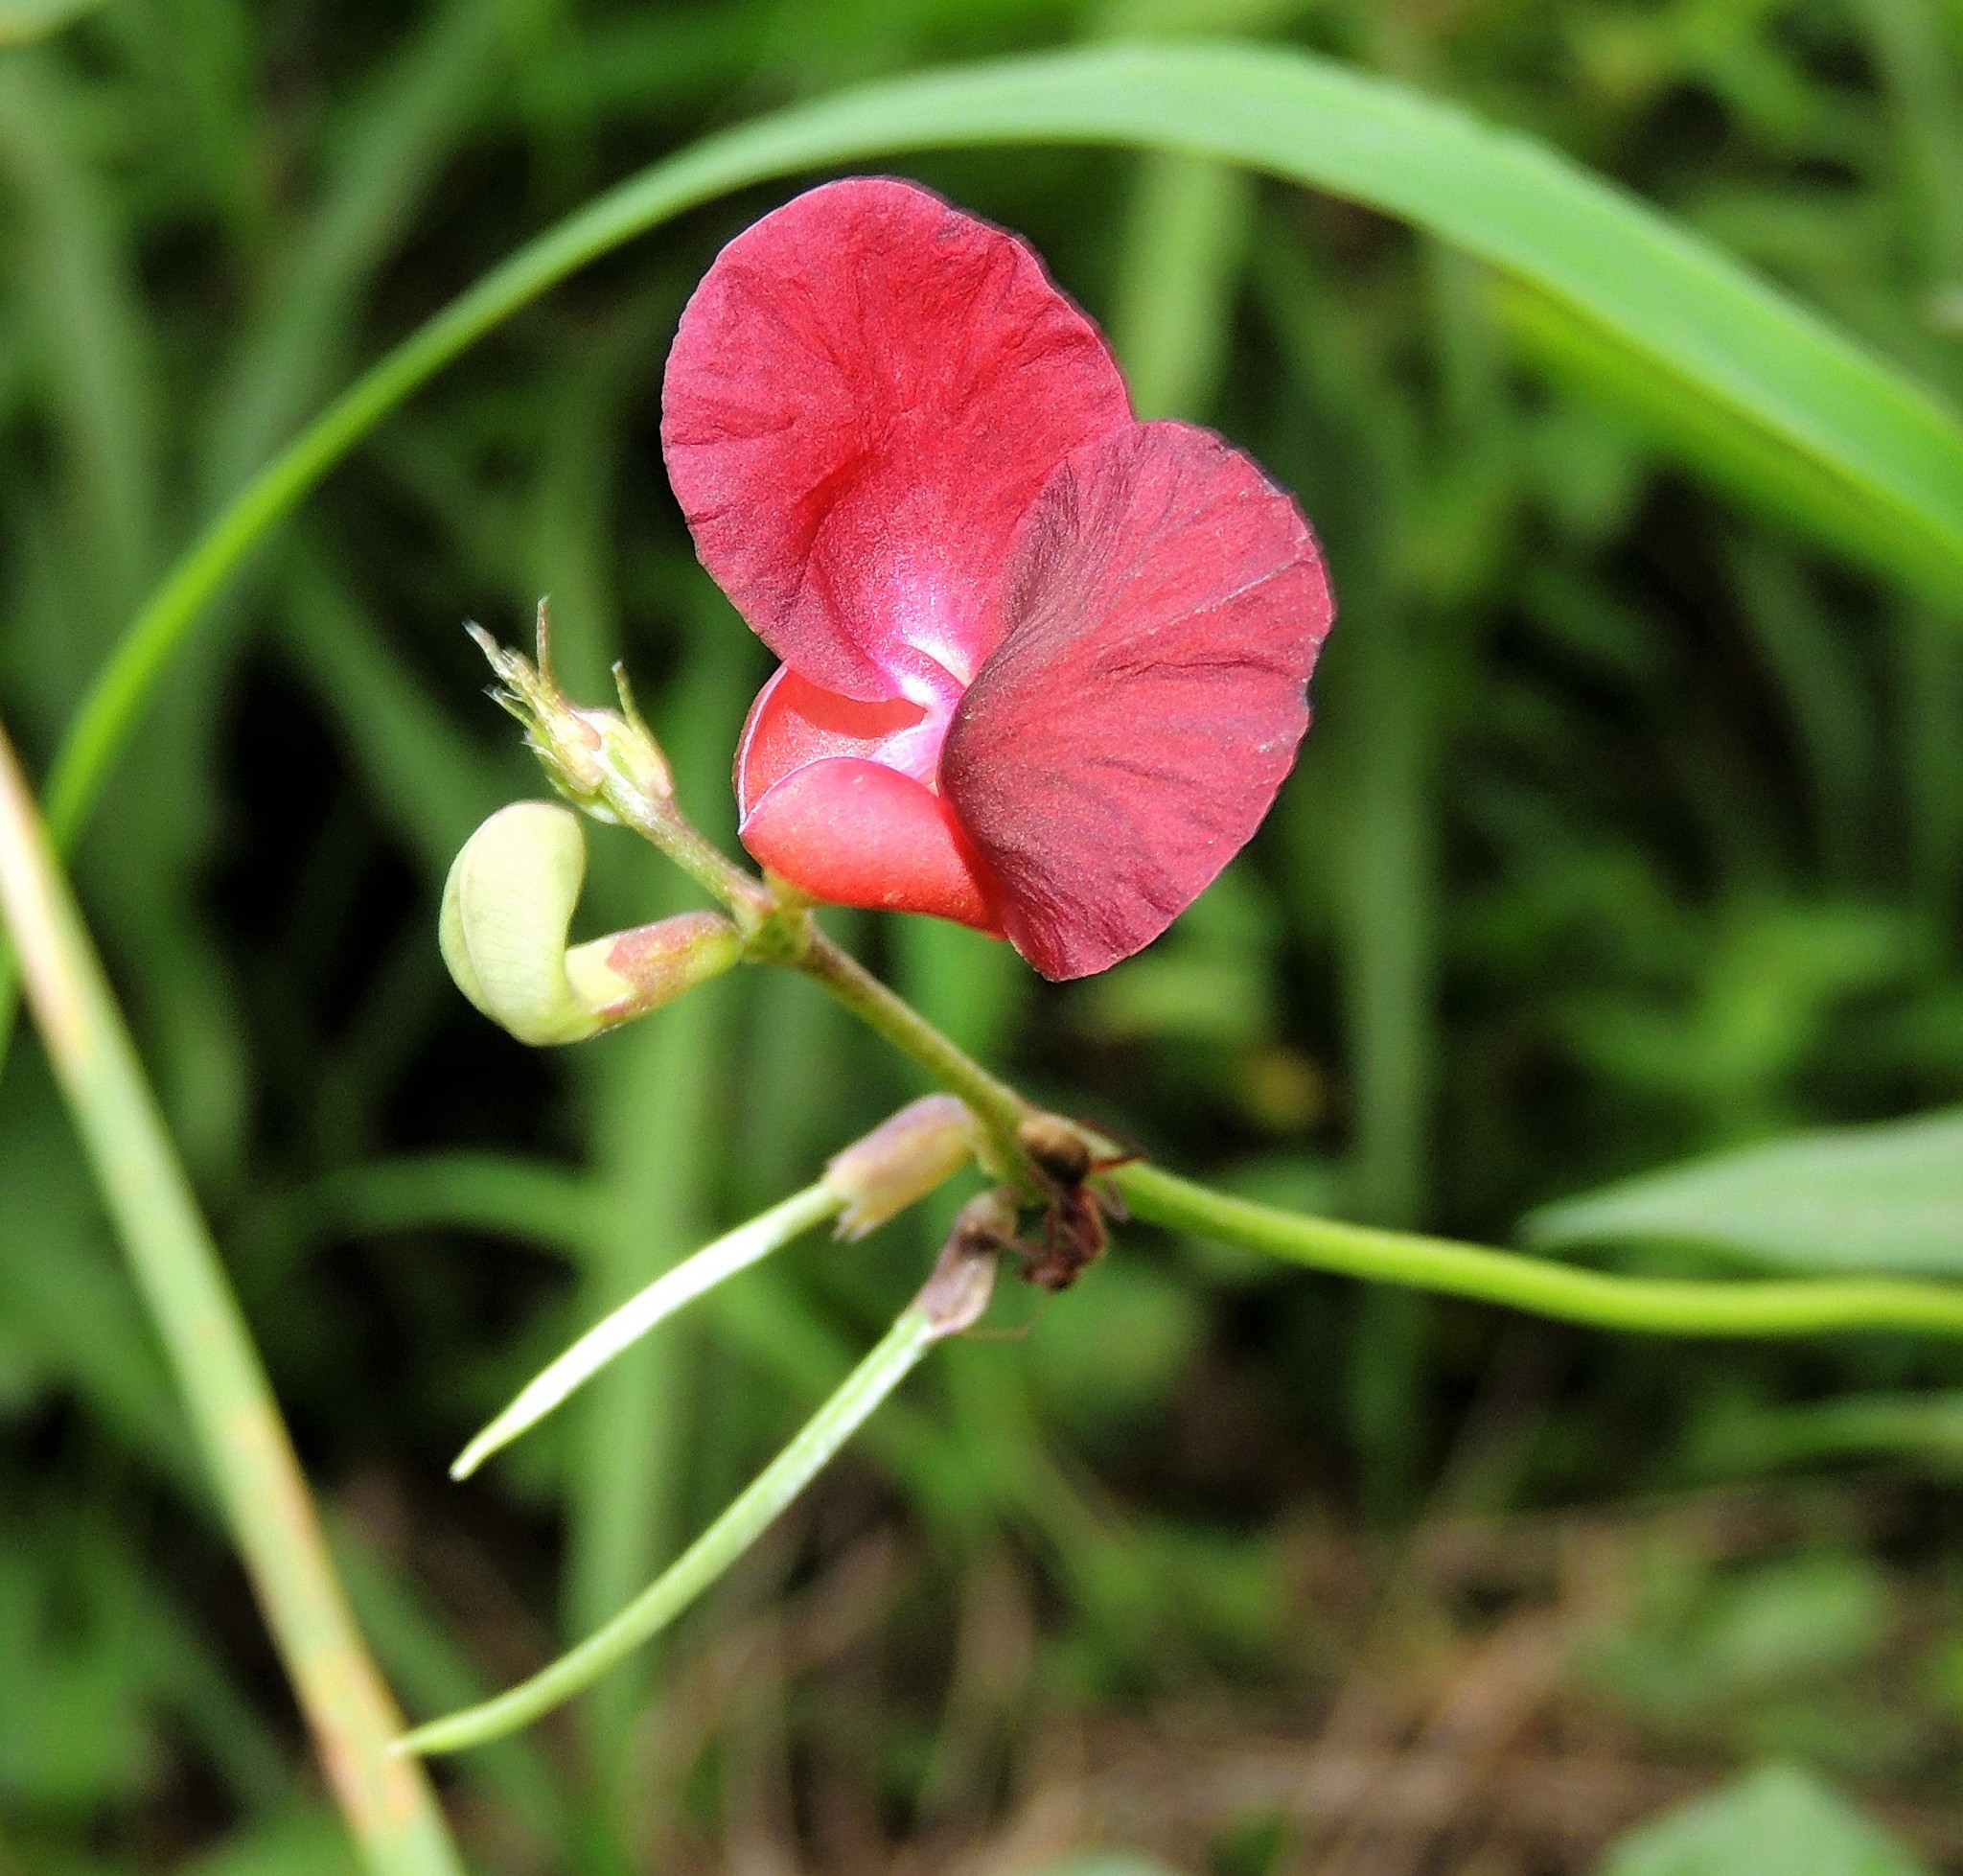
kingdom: Plantae
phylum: Tracheophyta
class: Magnoliopsida
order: Fabales
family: Fabaceae
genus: Macroptilium
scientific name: Macroptilium lathyroides
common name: Wild bushbean
